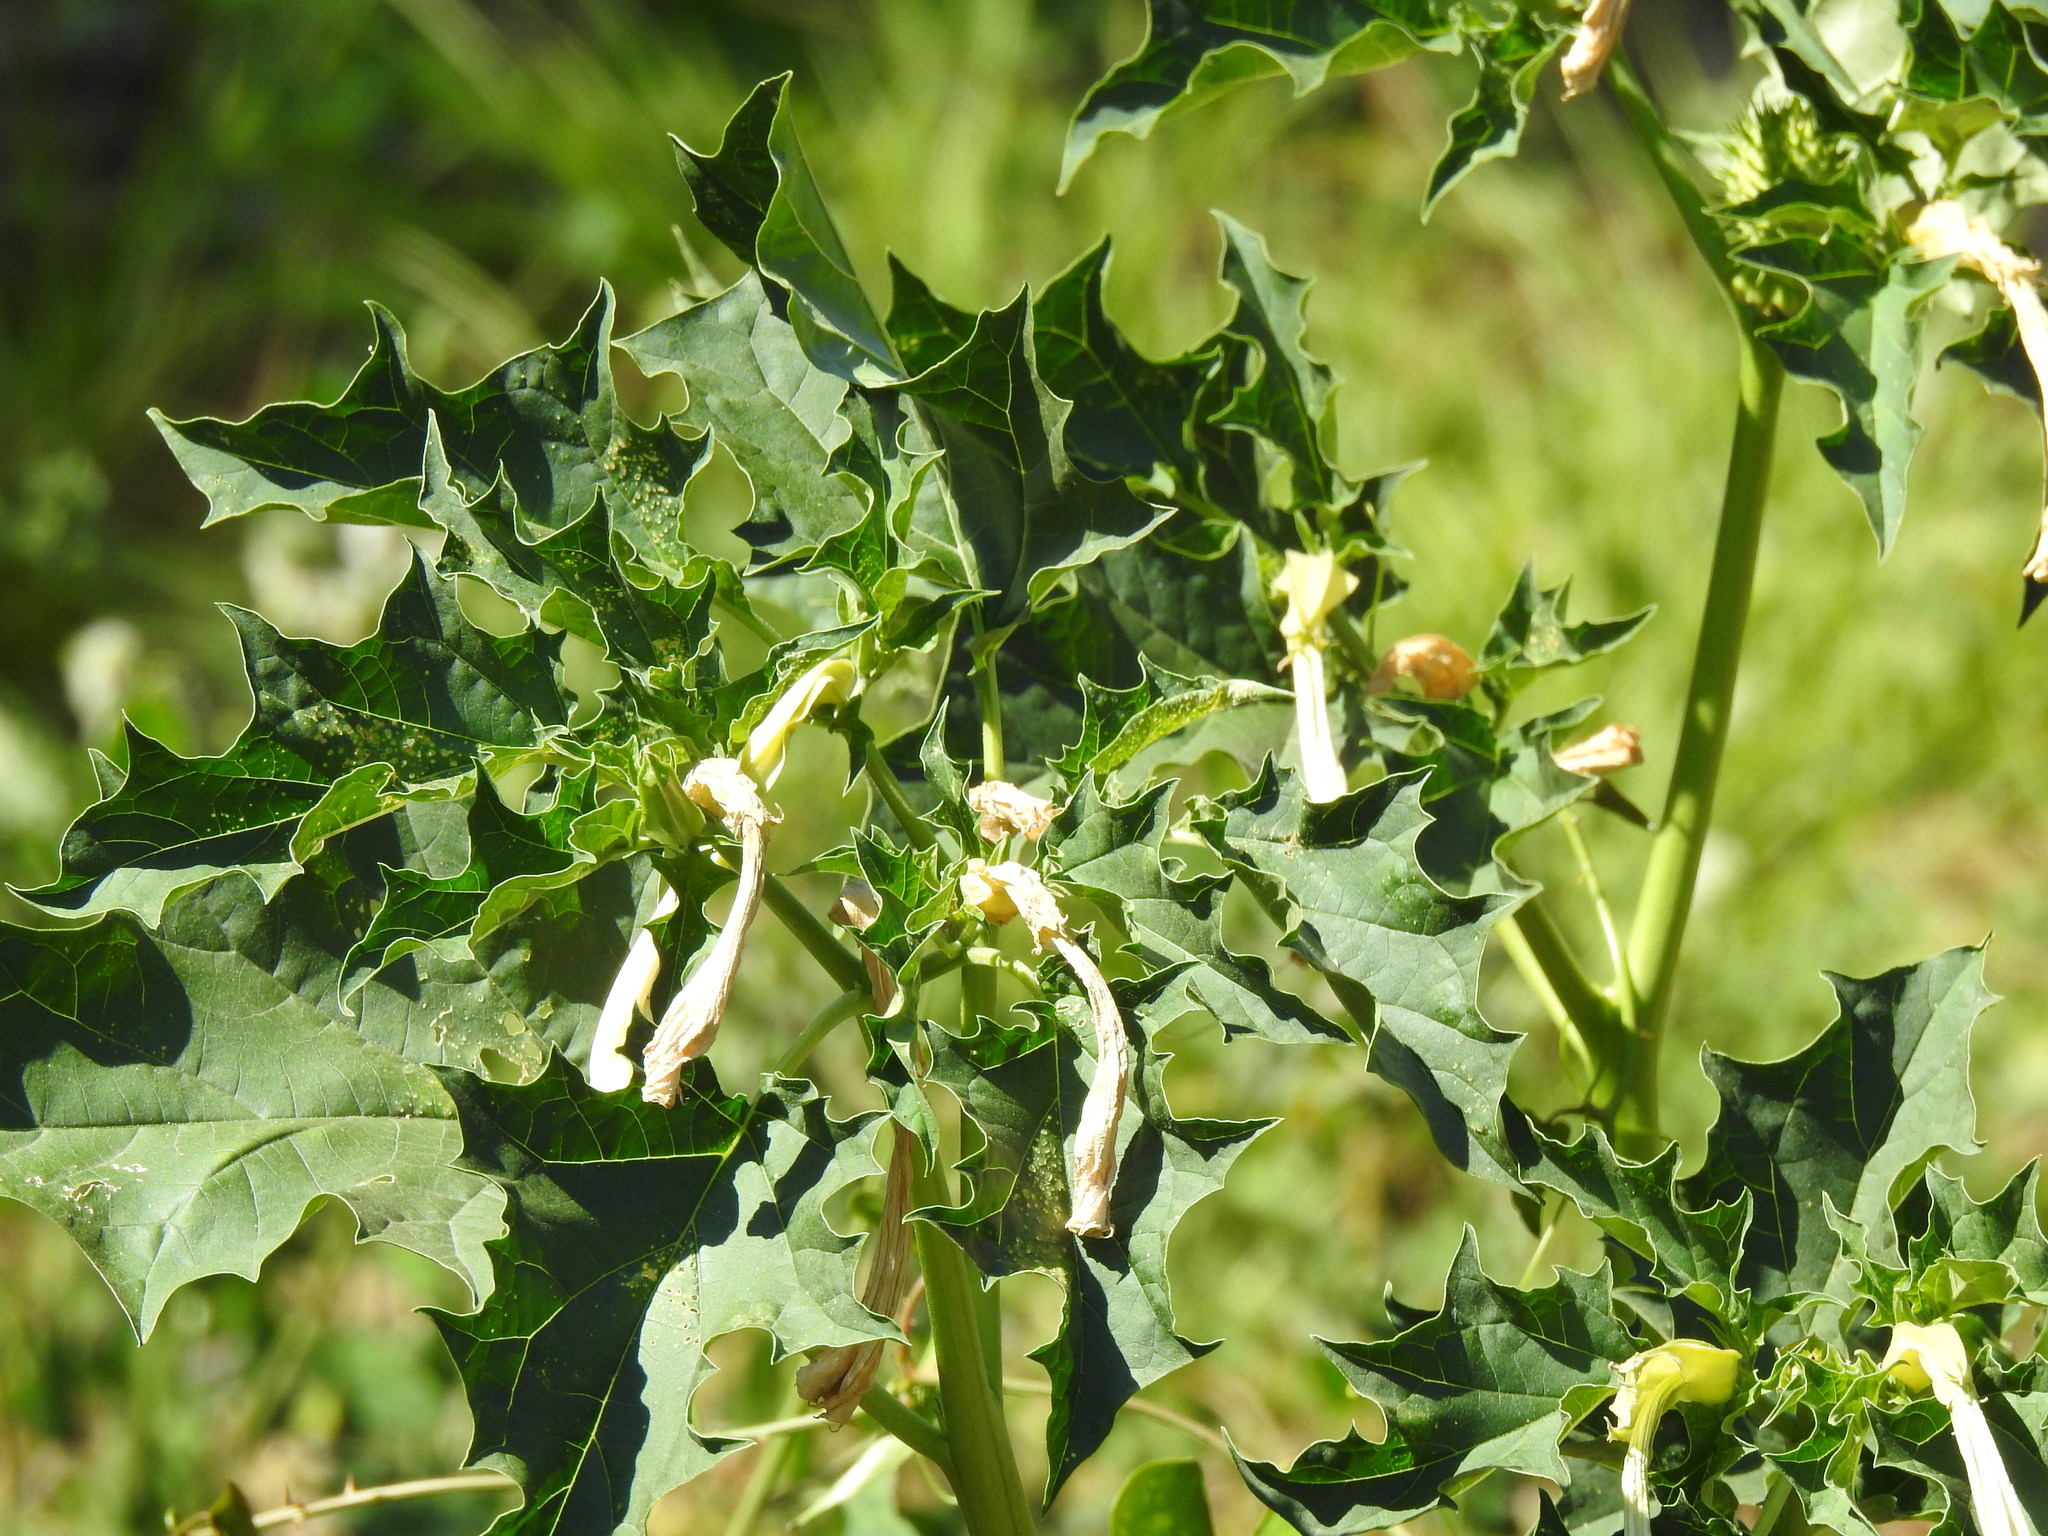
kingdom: Plantae
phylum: Tracheophyta
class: Magnoliopsida
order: Solanales
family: Solanaceae
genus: Datura
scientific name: Datura stramonium
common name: Thorn-apple
